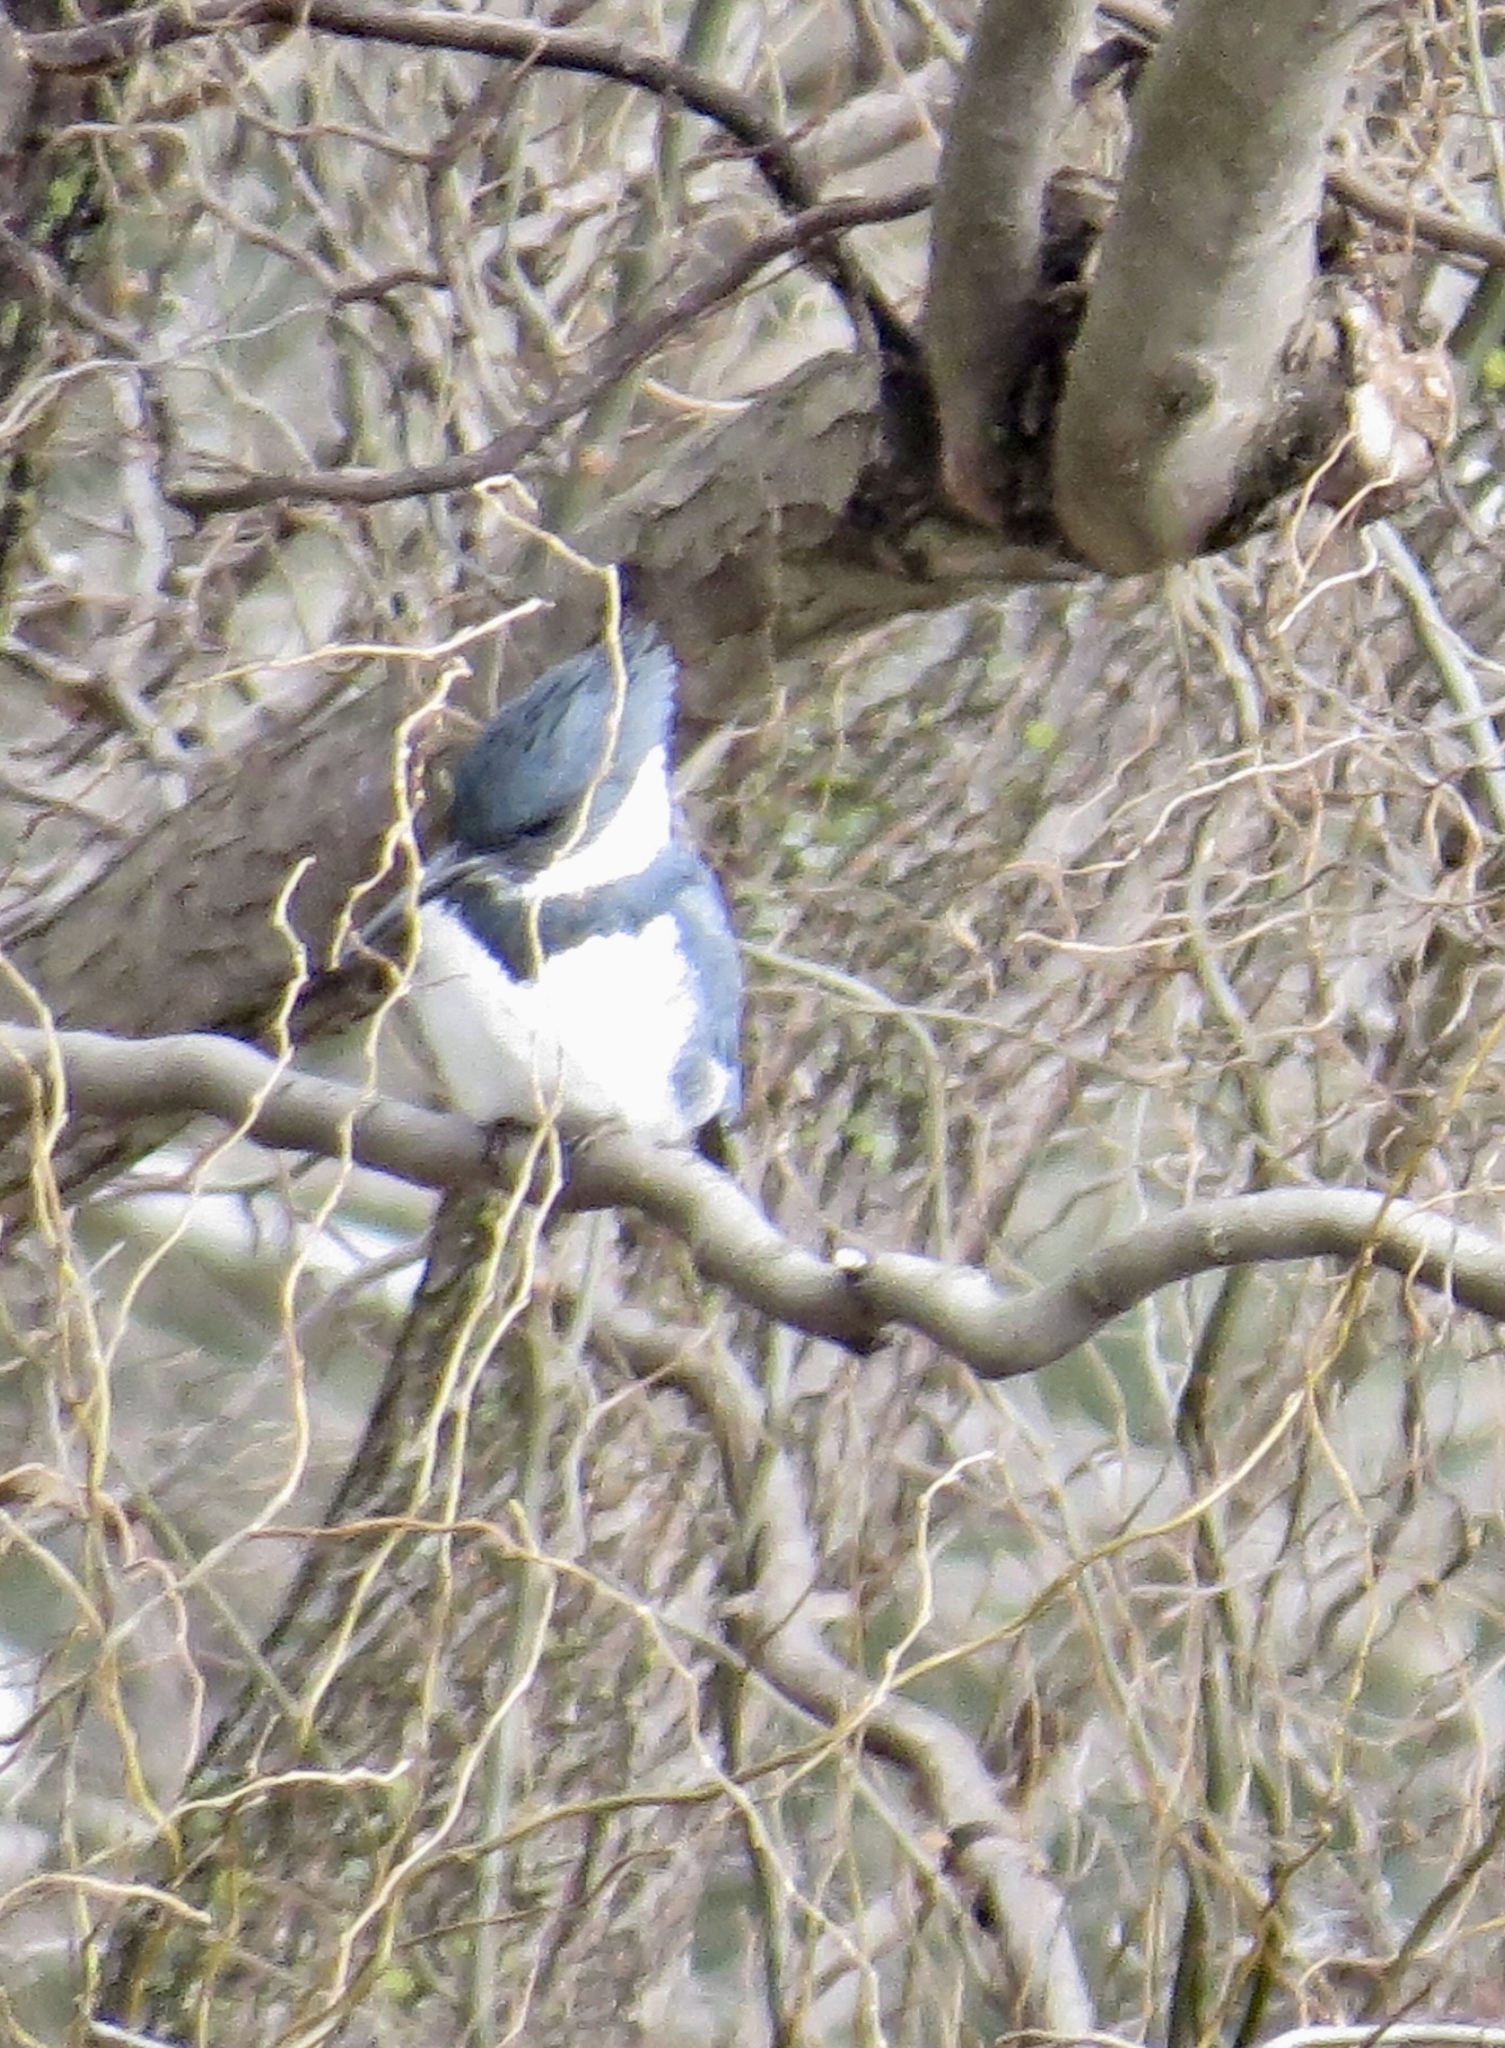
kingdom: Animalia
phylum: Chordata
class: Aves
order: Coraciiformes
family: Alcedinidae
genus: Megaceryle
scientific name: Megaceryle alcyon
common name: Belted kingfisher
